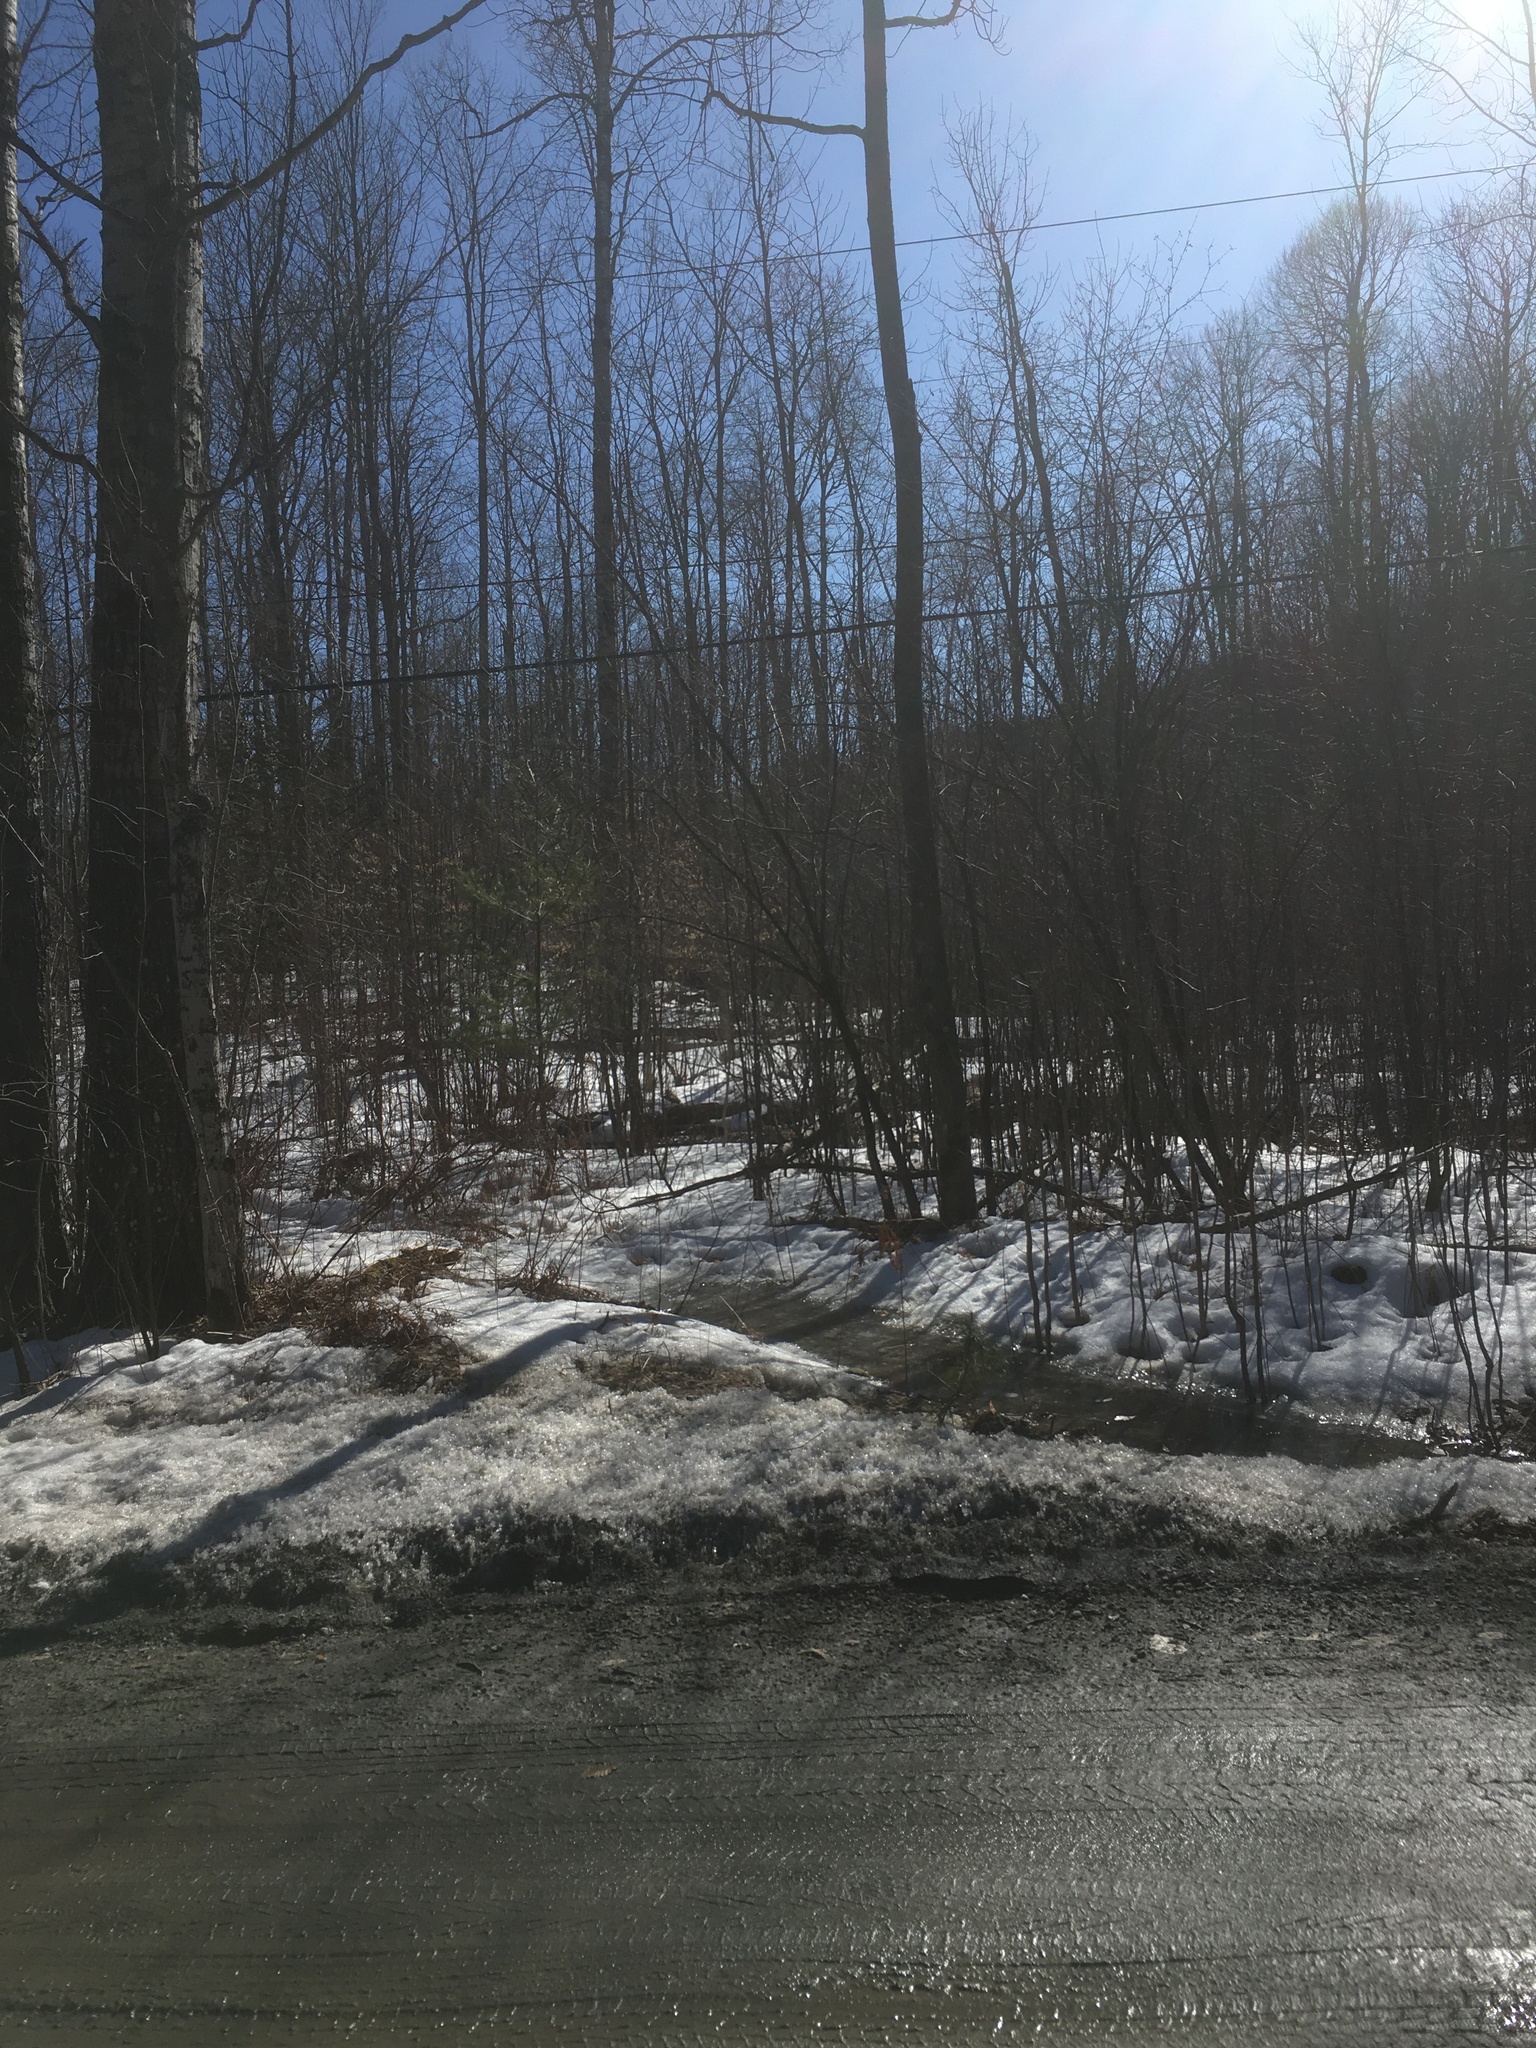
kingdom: Plantae
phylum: Tracheophyta
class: Pinopsida
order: Pinales
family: Pinaceae
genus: Pinus
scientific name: Pinus strobus
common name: Weymouth pine
